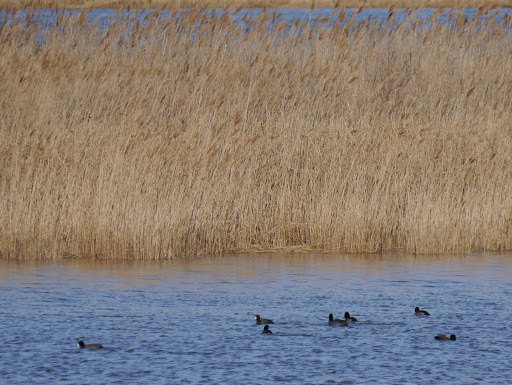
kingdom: Animalia
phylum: Chordata
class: Aves
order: Gruiformes
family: Rallidae
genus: Fulica
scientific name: Fulica americana
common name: American coot
